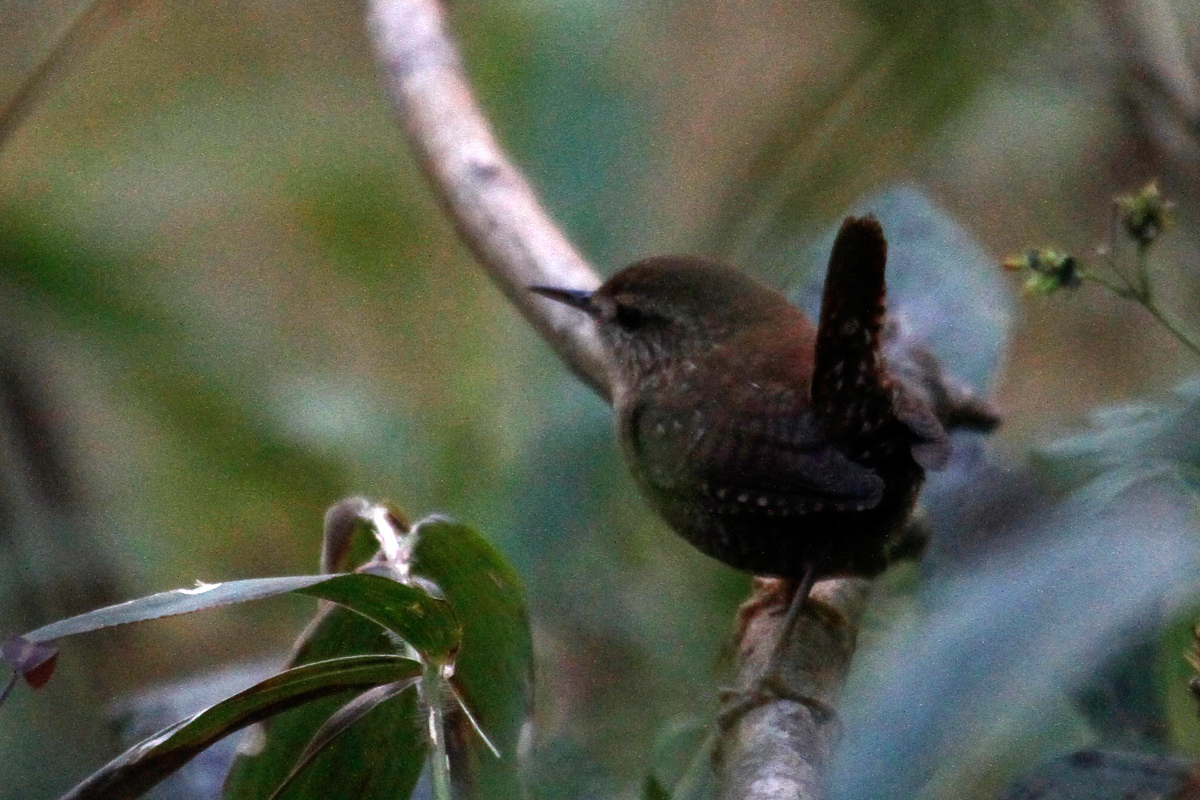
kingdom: Animalia
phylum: Chordata
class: Aves
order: Passeriformes
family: Troglodytidae
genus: Troglodytes
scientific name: Troglodytes hiemalis
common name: Winter wren
